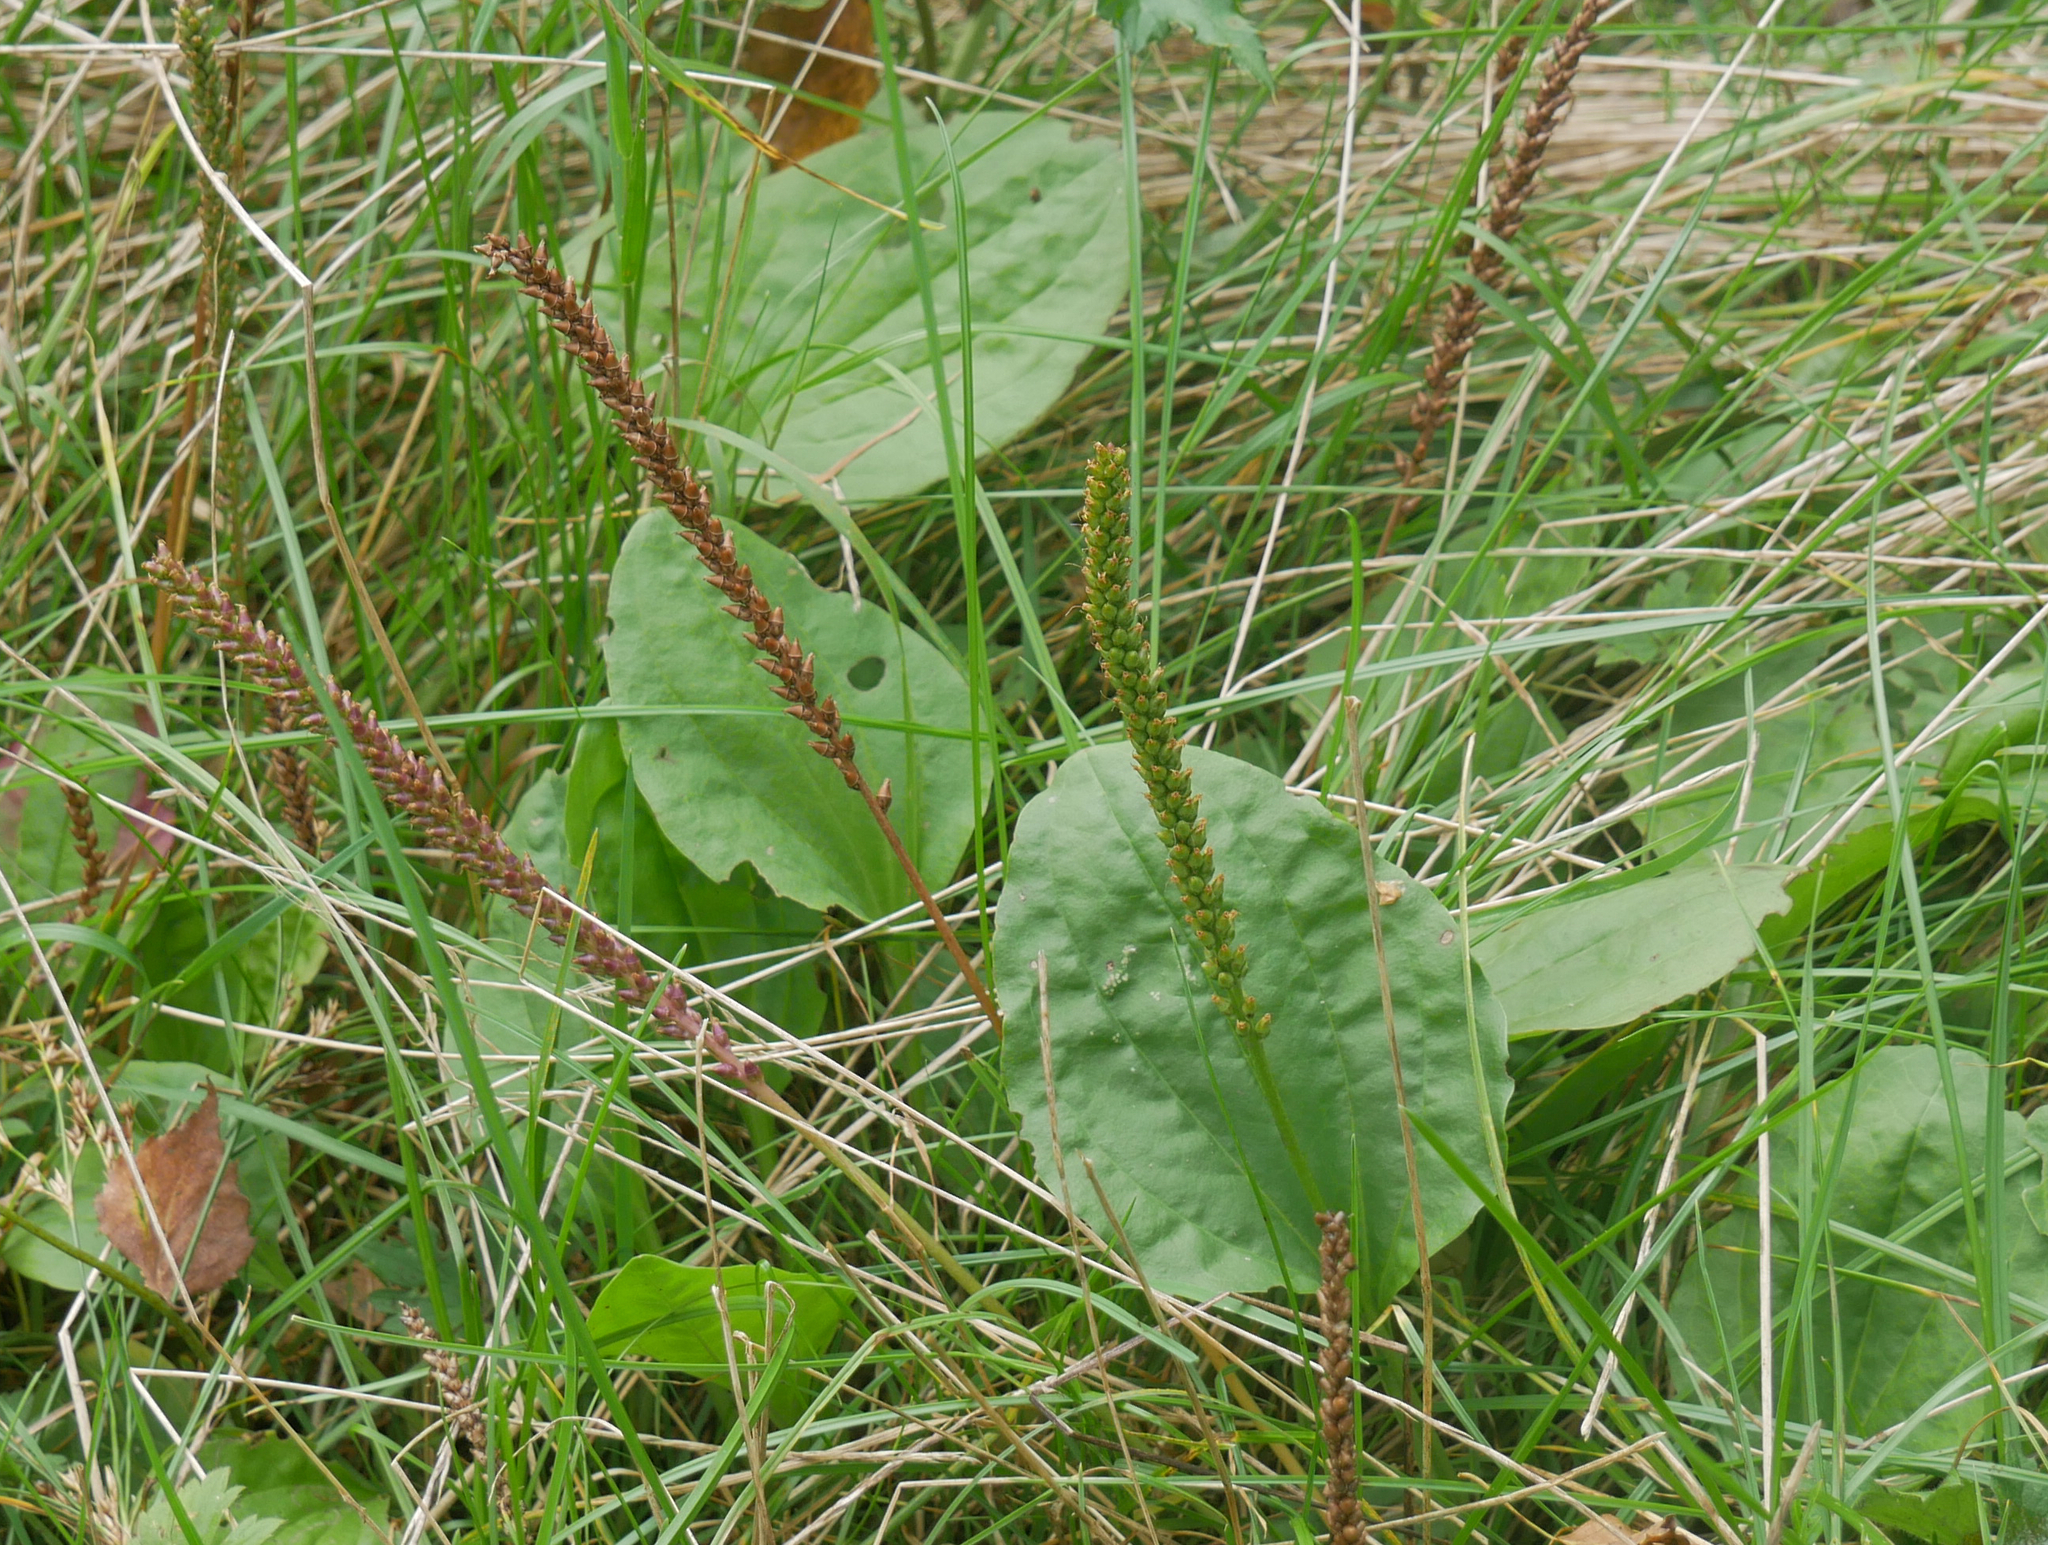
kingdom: Plantae
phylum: Tracheophyta
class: Magnoliopsida
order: Lamiales
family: Plantaginaceae
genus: Plantago
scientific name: Plantago major
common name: Common plantain
